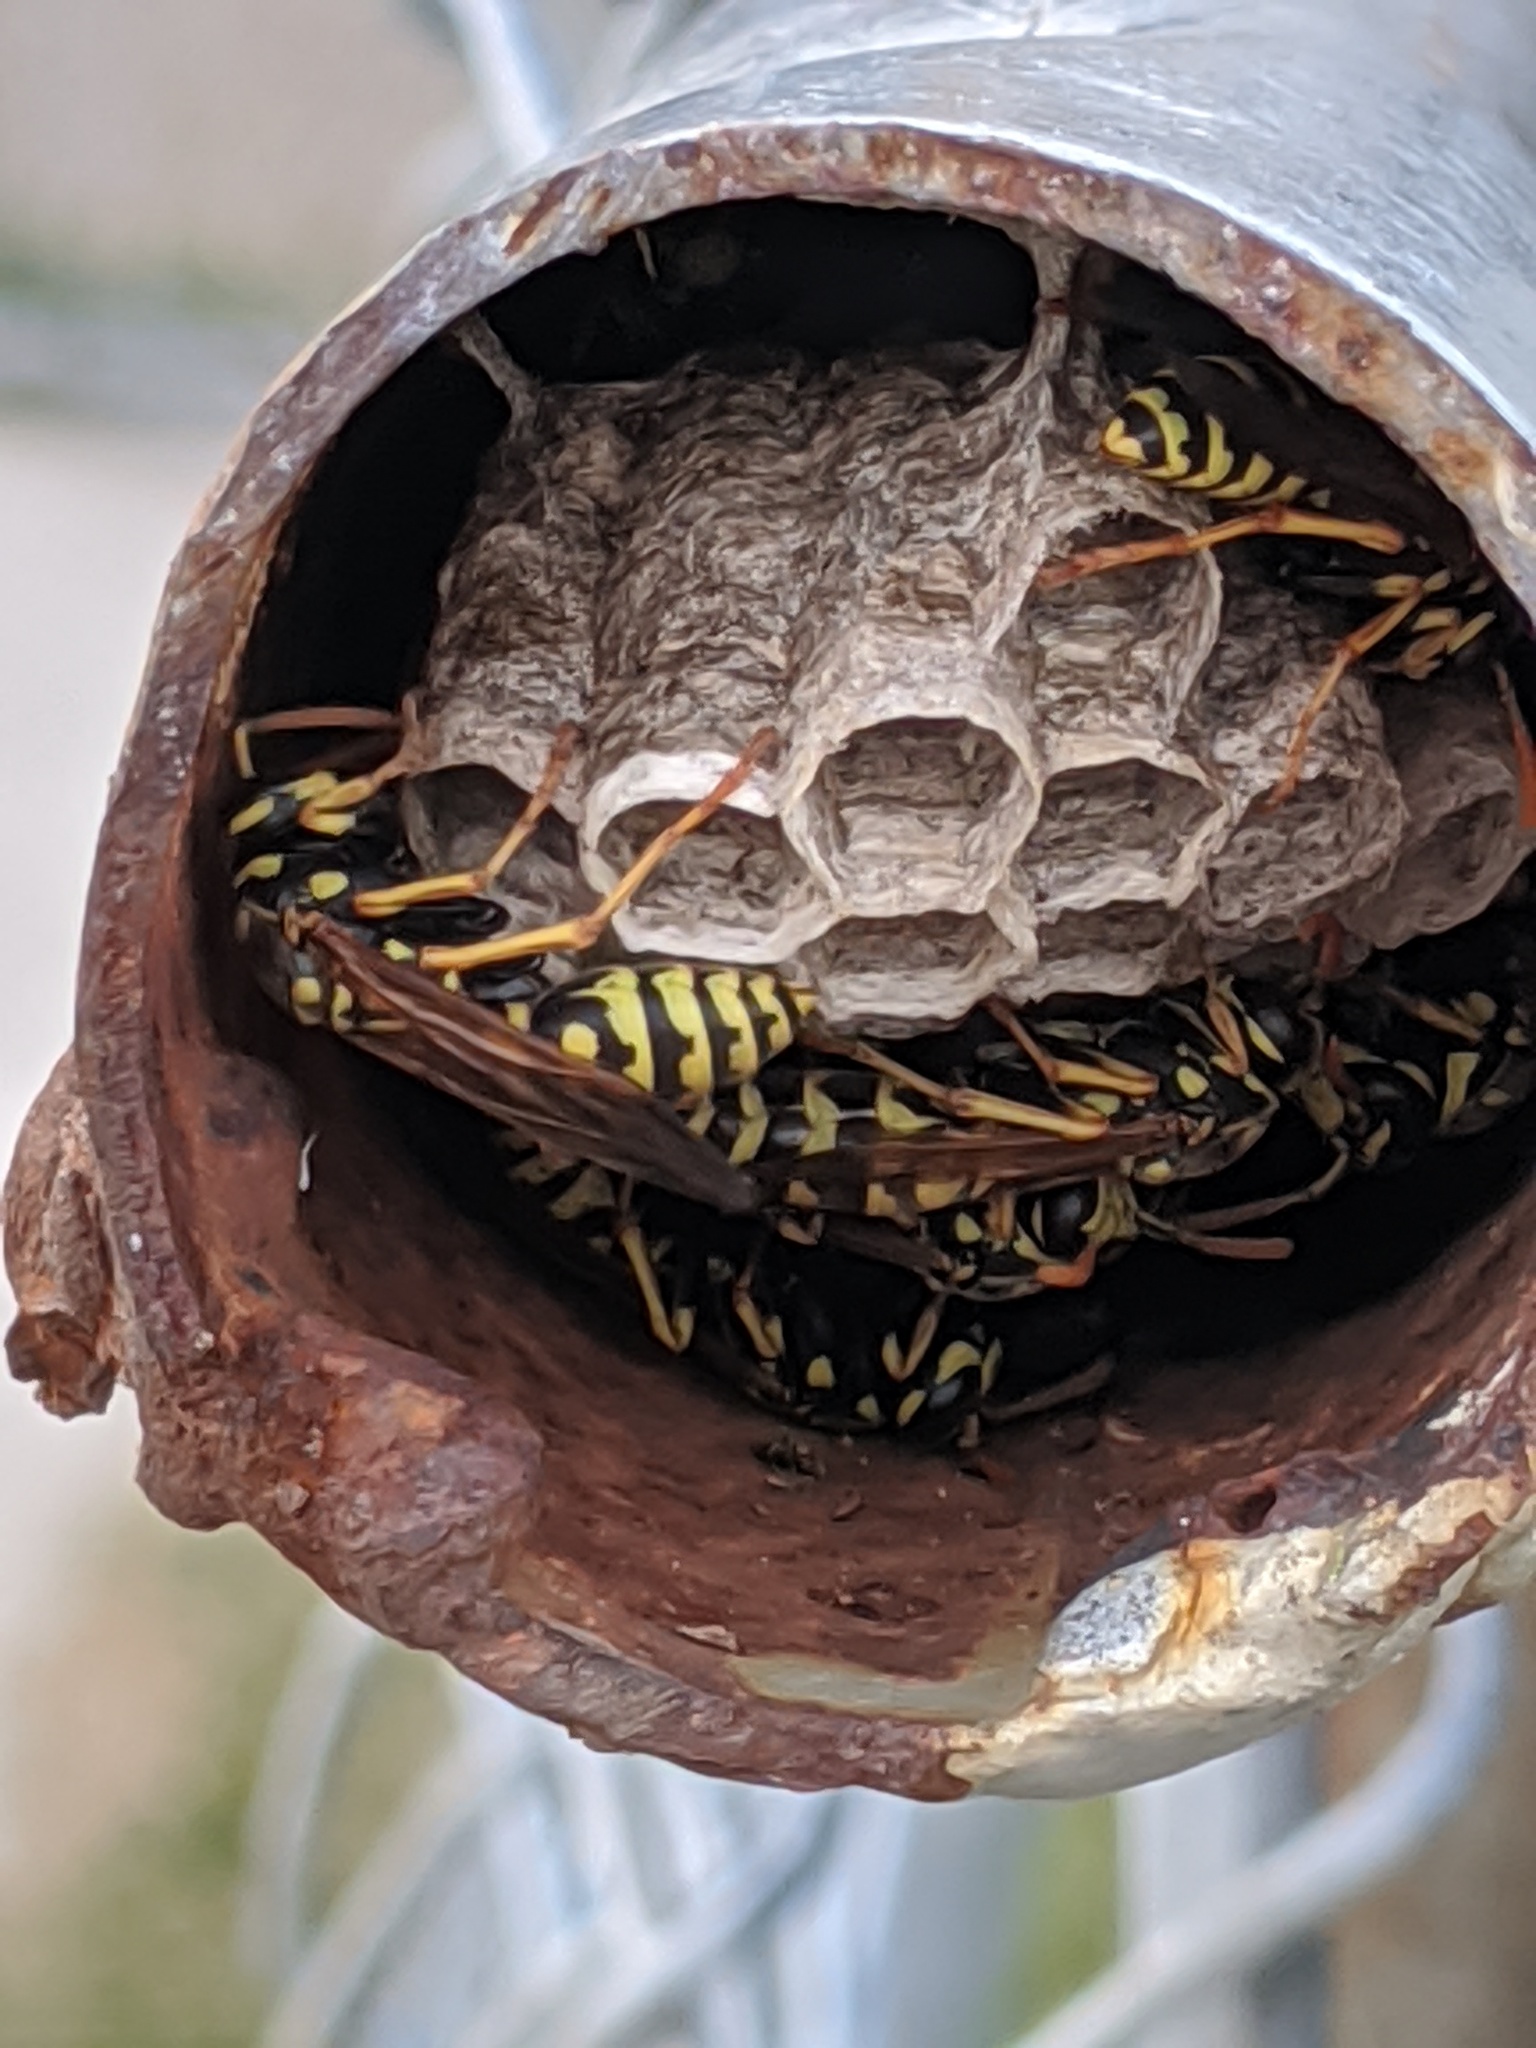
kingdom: Animalia
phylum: Arthropoda
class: Insecta
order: Hymenoptera
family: Eumenidae
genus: Polistes
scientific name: Polistes dominula
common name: Paper wasp
